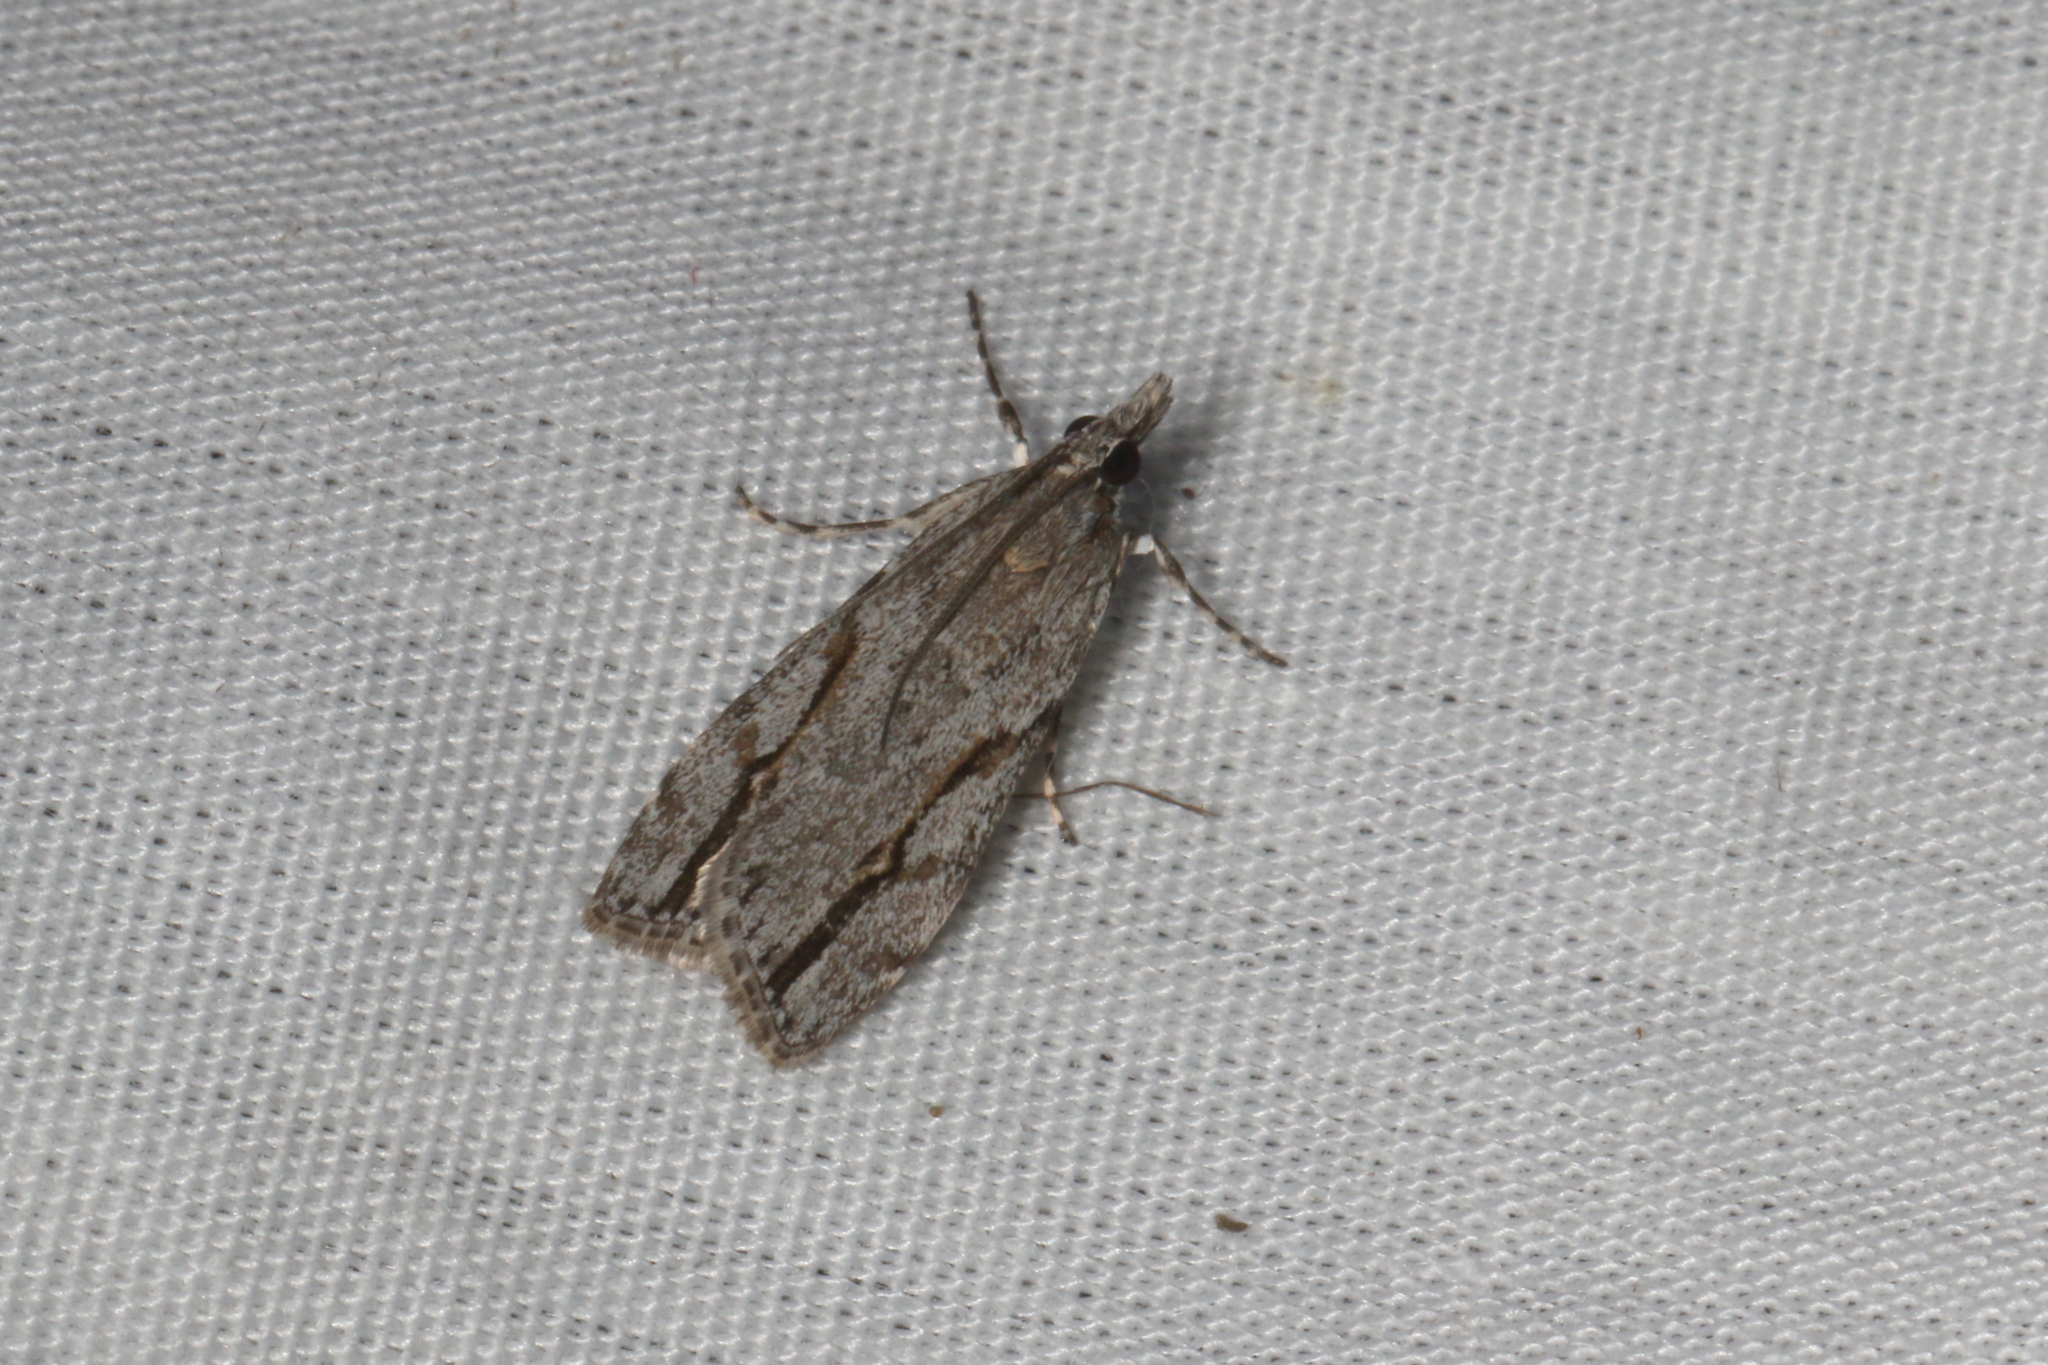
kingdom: Animalia
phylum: Arthropoda
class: Insecta
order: Lepidoptera
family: Crambidae
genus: Eudonia
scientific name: Eudonia bisinualis
